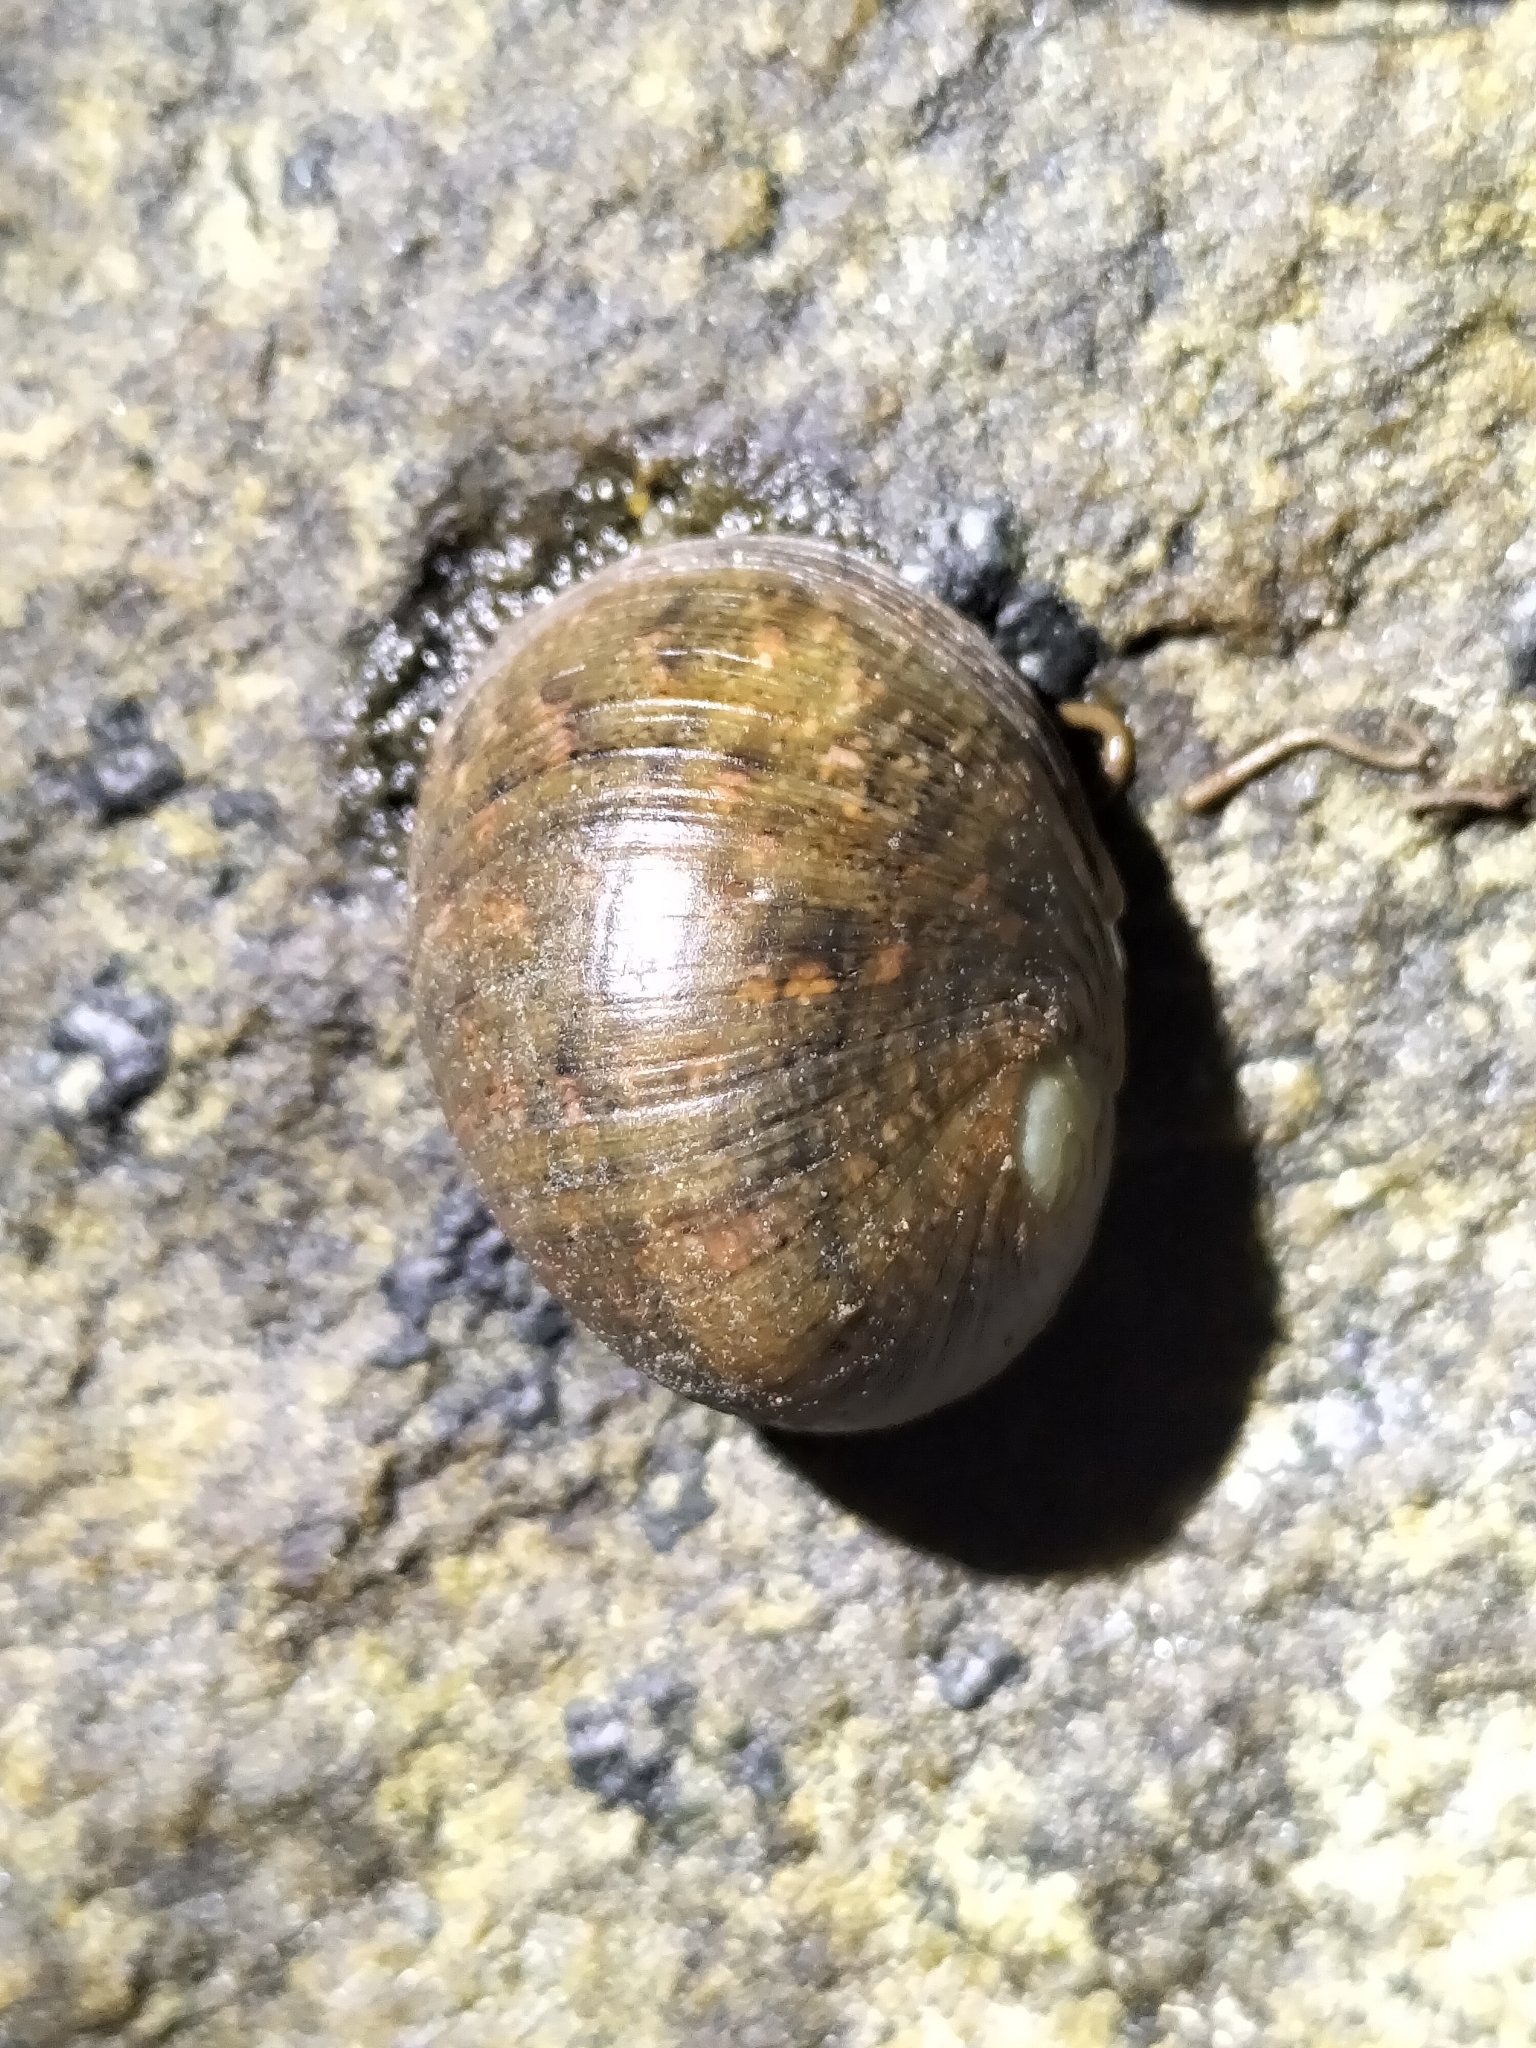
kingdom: Animalia
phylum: Mollusca
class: Gastropoda
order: Cycloneritida
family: Neritidae
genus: Nerita
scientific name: Nerita erythrostoma
